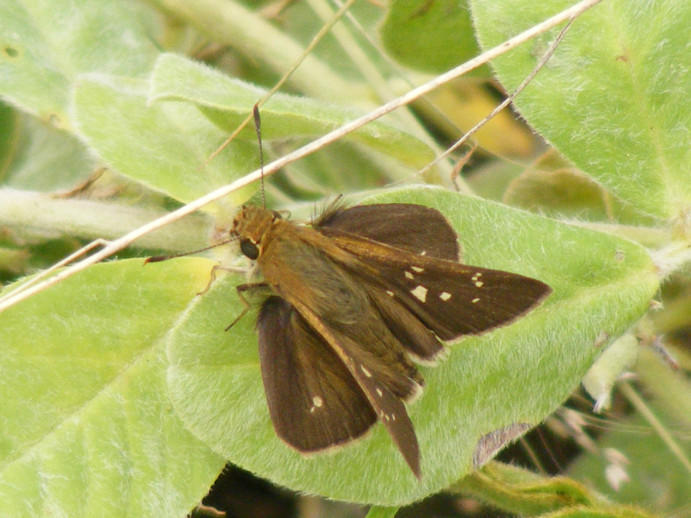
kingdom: Animalia
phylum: Arthropoda
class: Insecta
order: Lepidoptera
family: Hesperiidae
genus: Borbo
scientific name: Borbo fallax
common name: False swift
